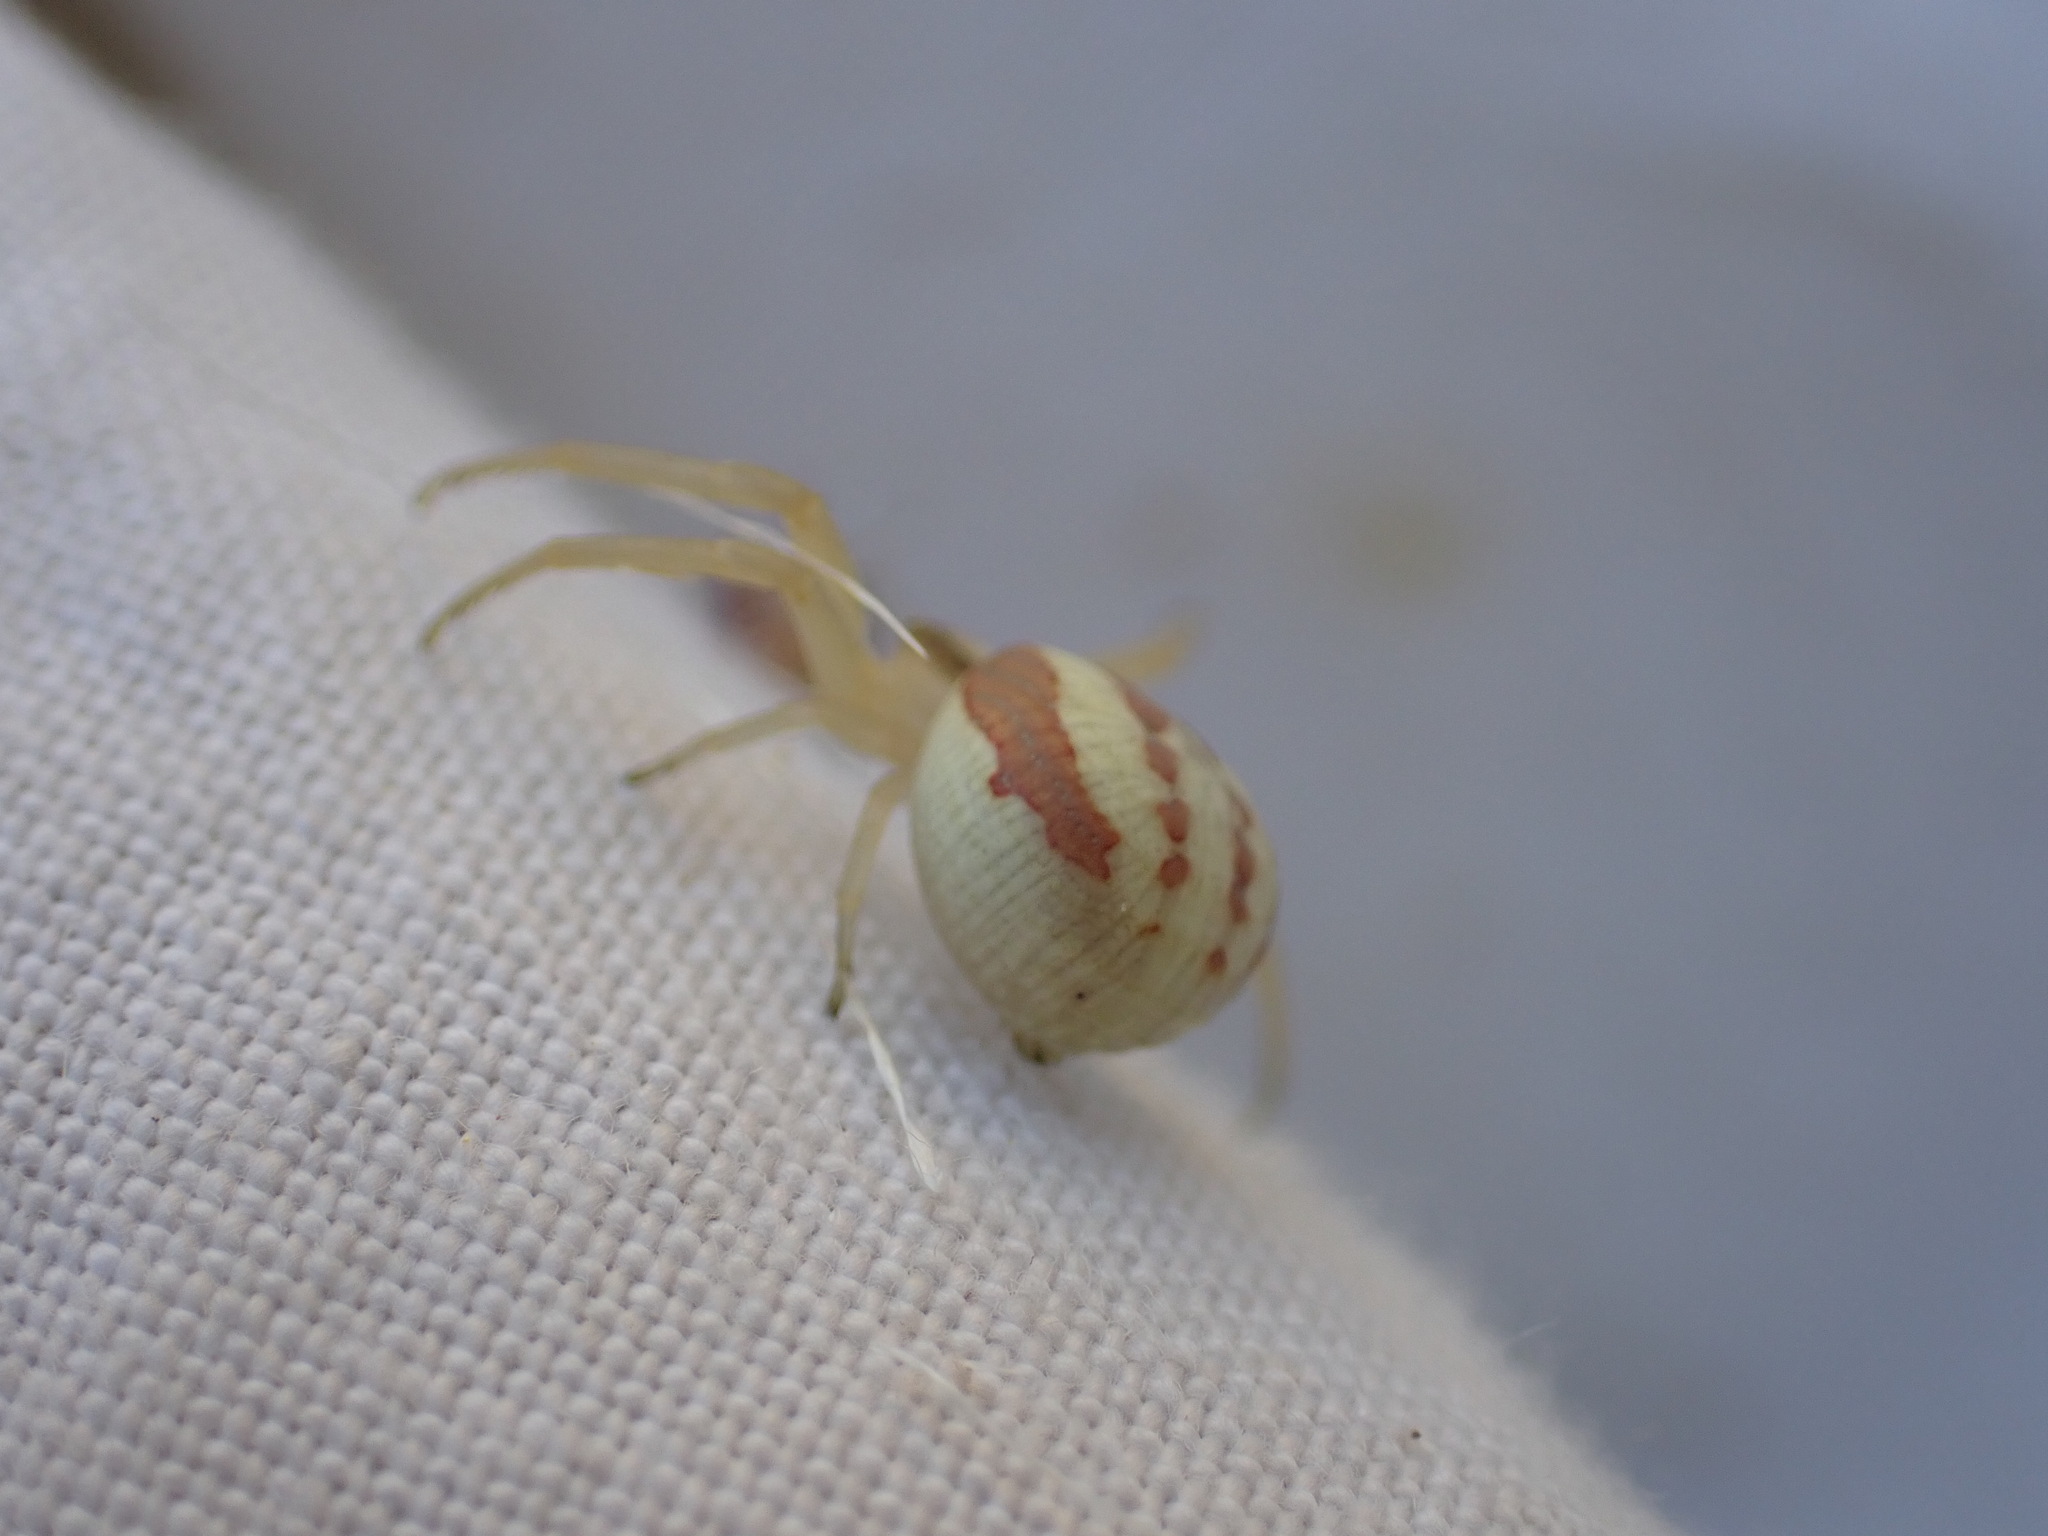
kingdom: Animalia
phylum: Arthropoda
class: Arachnida
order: Araneae
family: Thomisidae
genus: Runcinia
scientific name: Runcinia grammica
